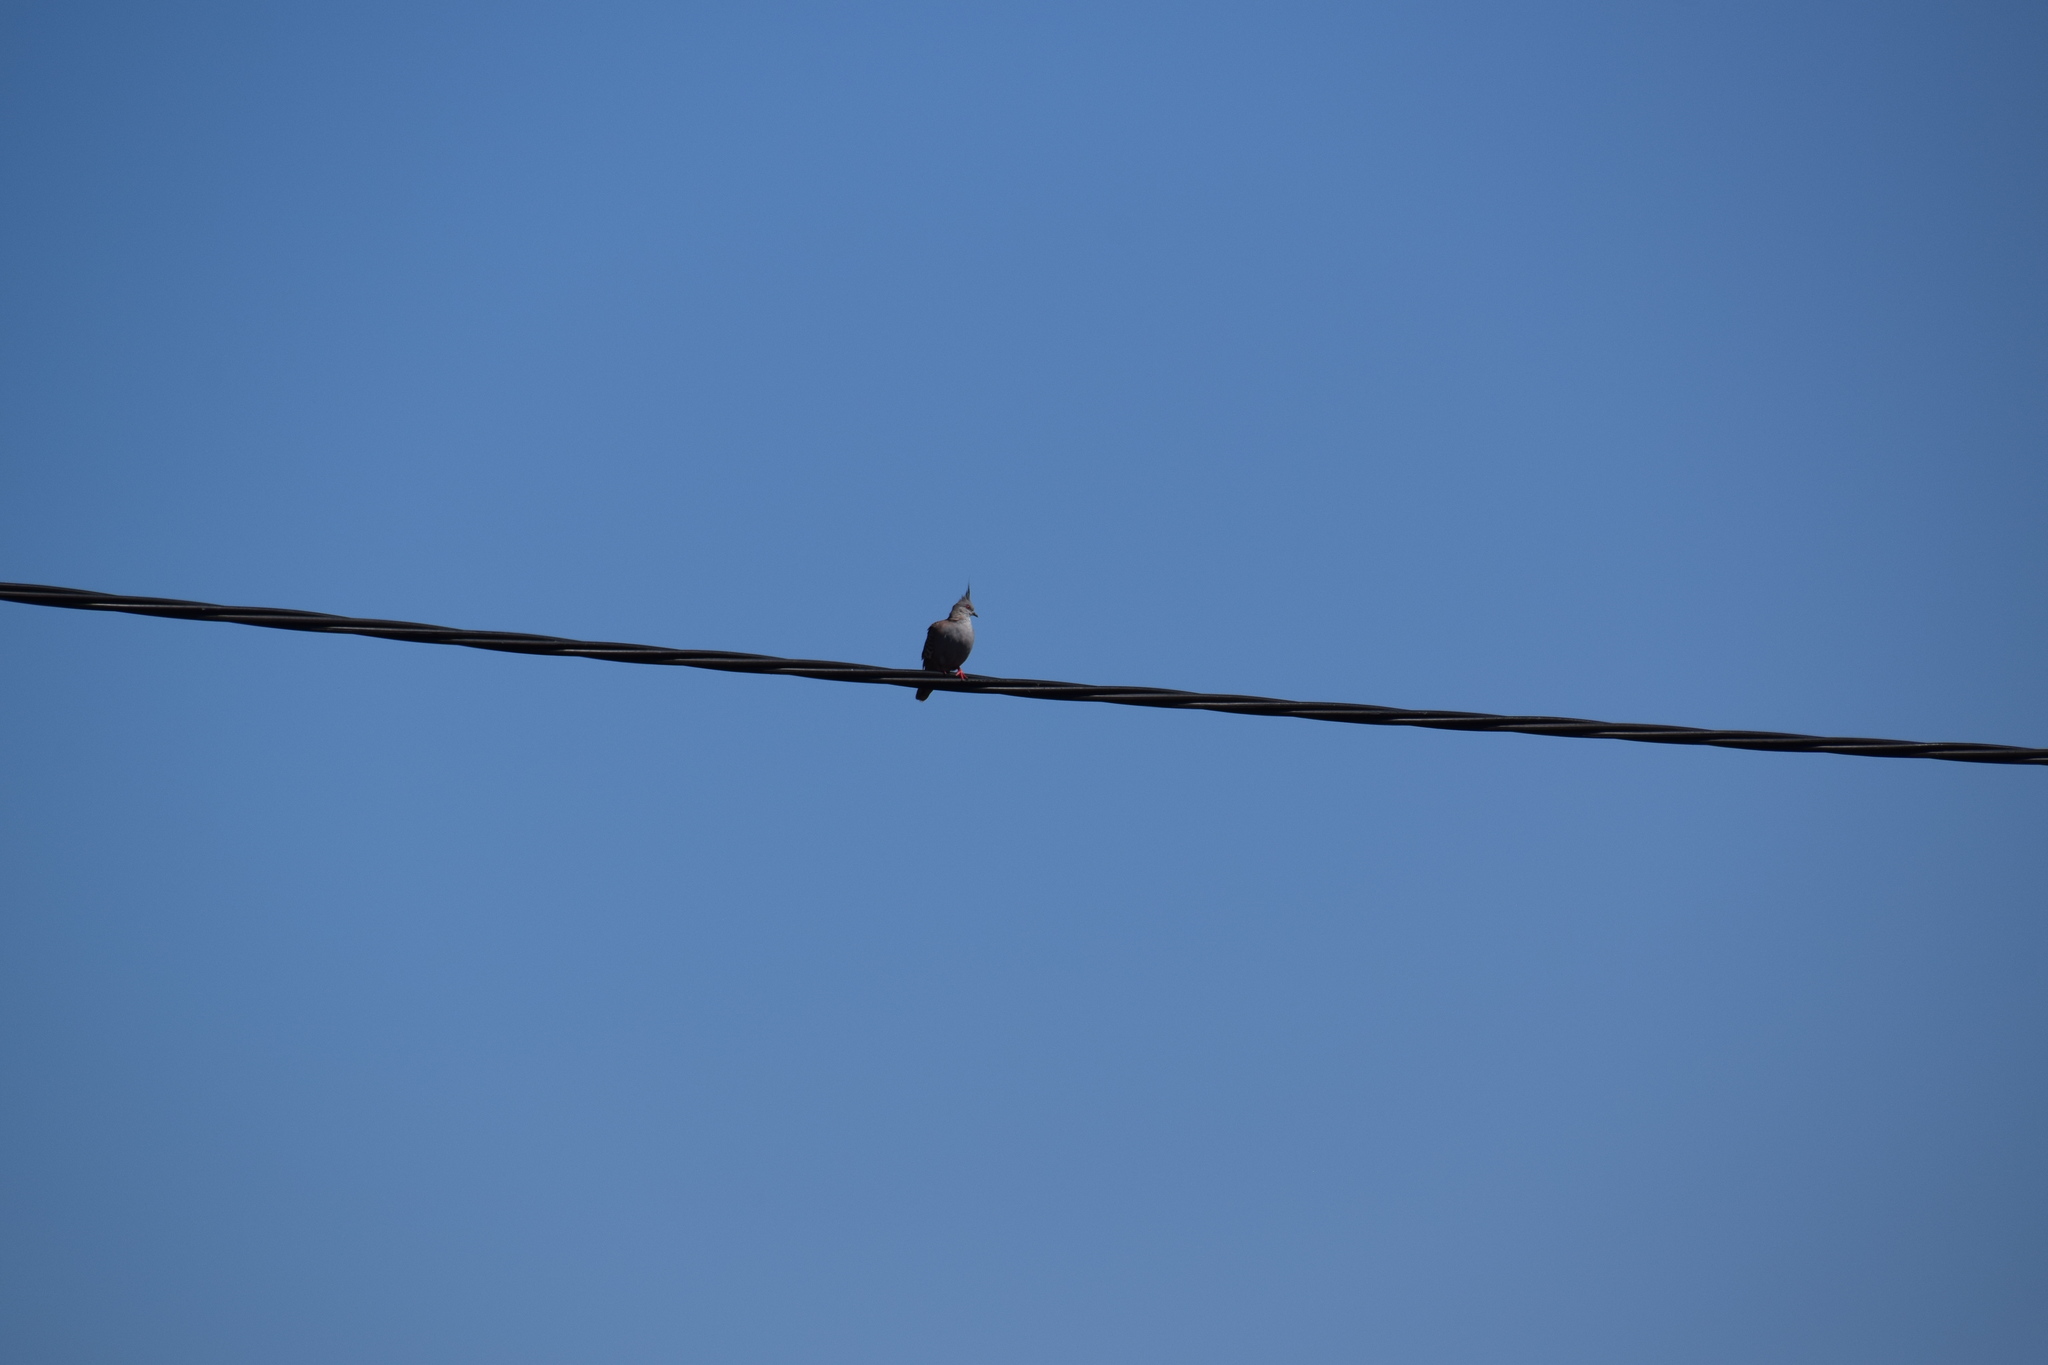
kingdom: Animalia
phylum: Chordata
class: Aves
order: Columbiformes
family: Columbidae
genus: Ocyphaps
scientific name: Ocyphaps lophotes
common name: Crested pigeon
